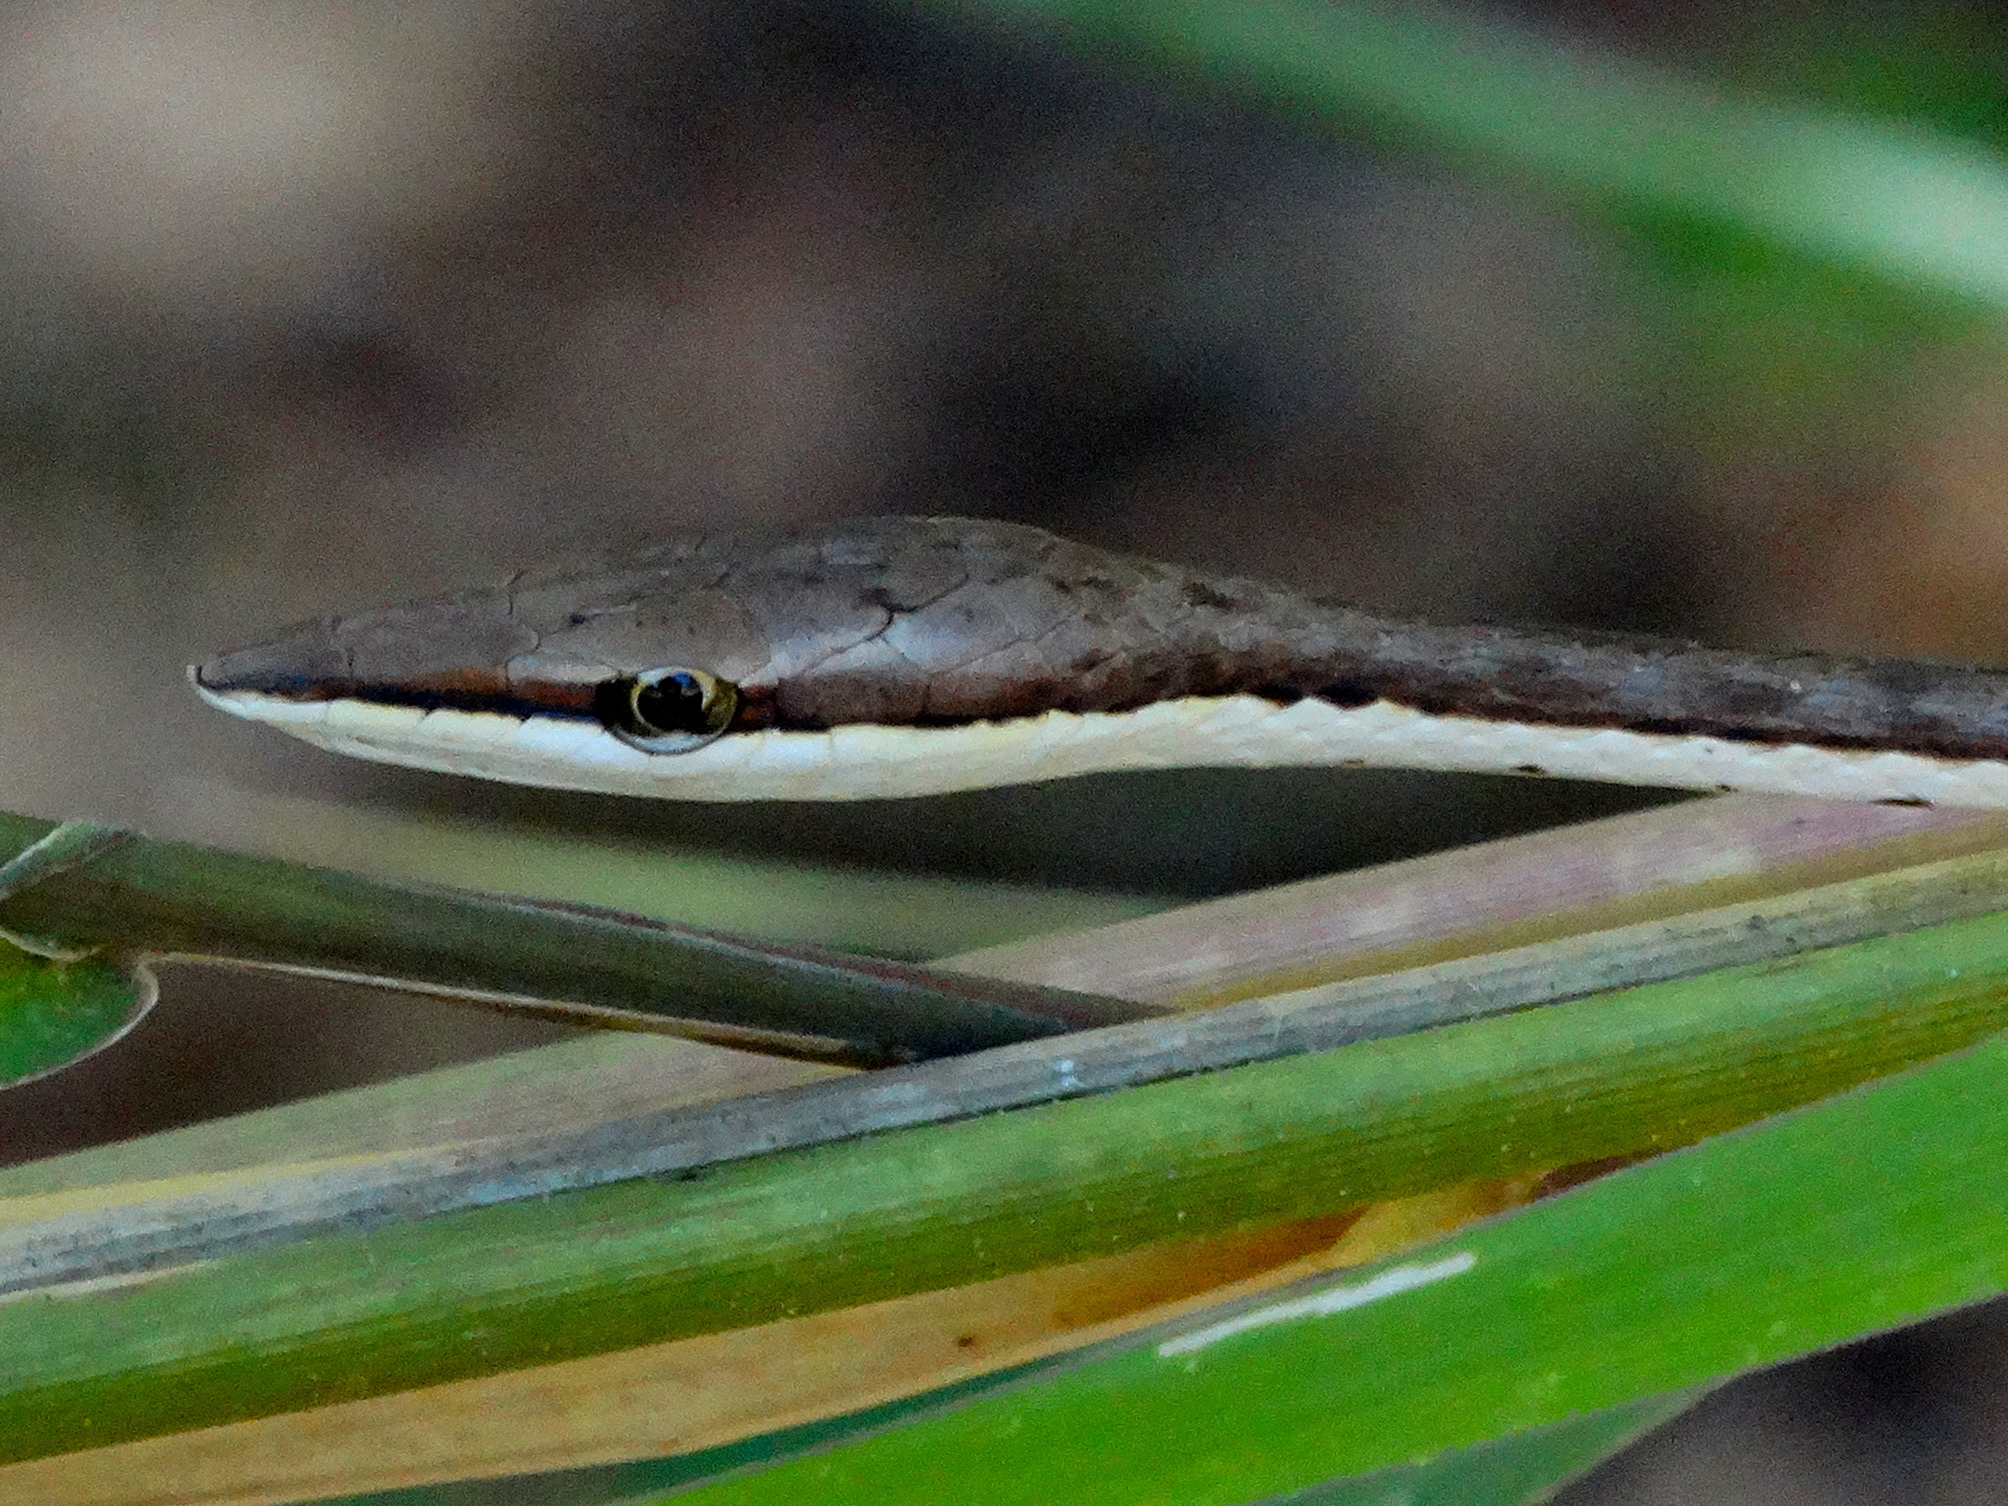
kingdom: Animalia
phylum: Chordata
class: Squamata
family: Colubridae
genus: Oxybelis
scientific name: Oxybelis microphthalmus
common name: Thrornscrub vine snake
